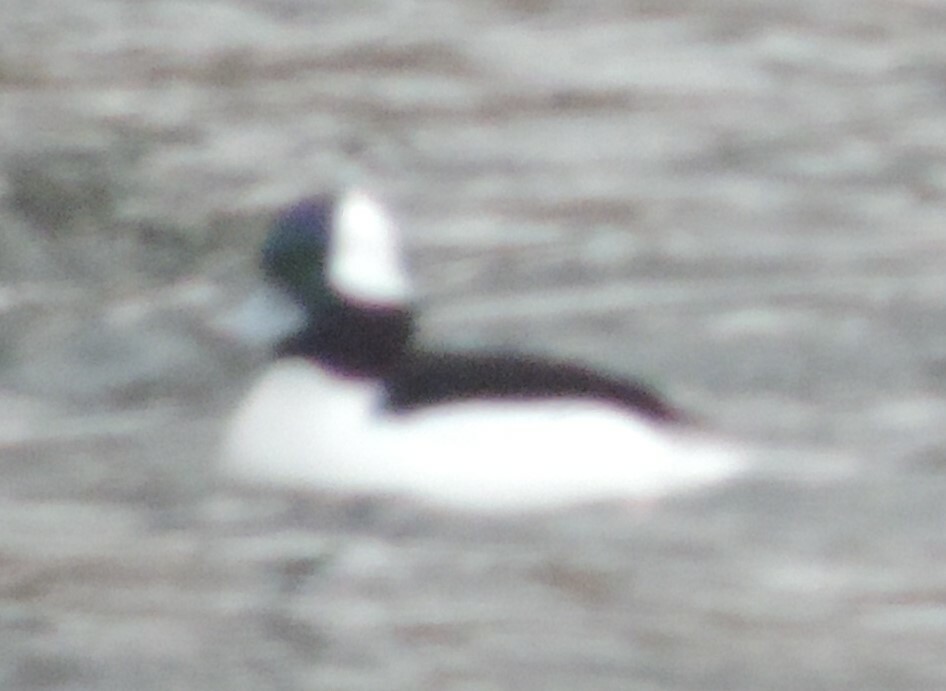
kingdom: Animalia
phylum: Chordata
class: Aves
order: Anseriformes
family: Anatidae
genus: Bucephala
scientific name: Bucephala albeola
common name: Bufflehead
